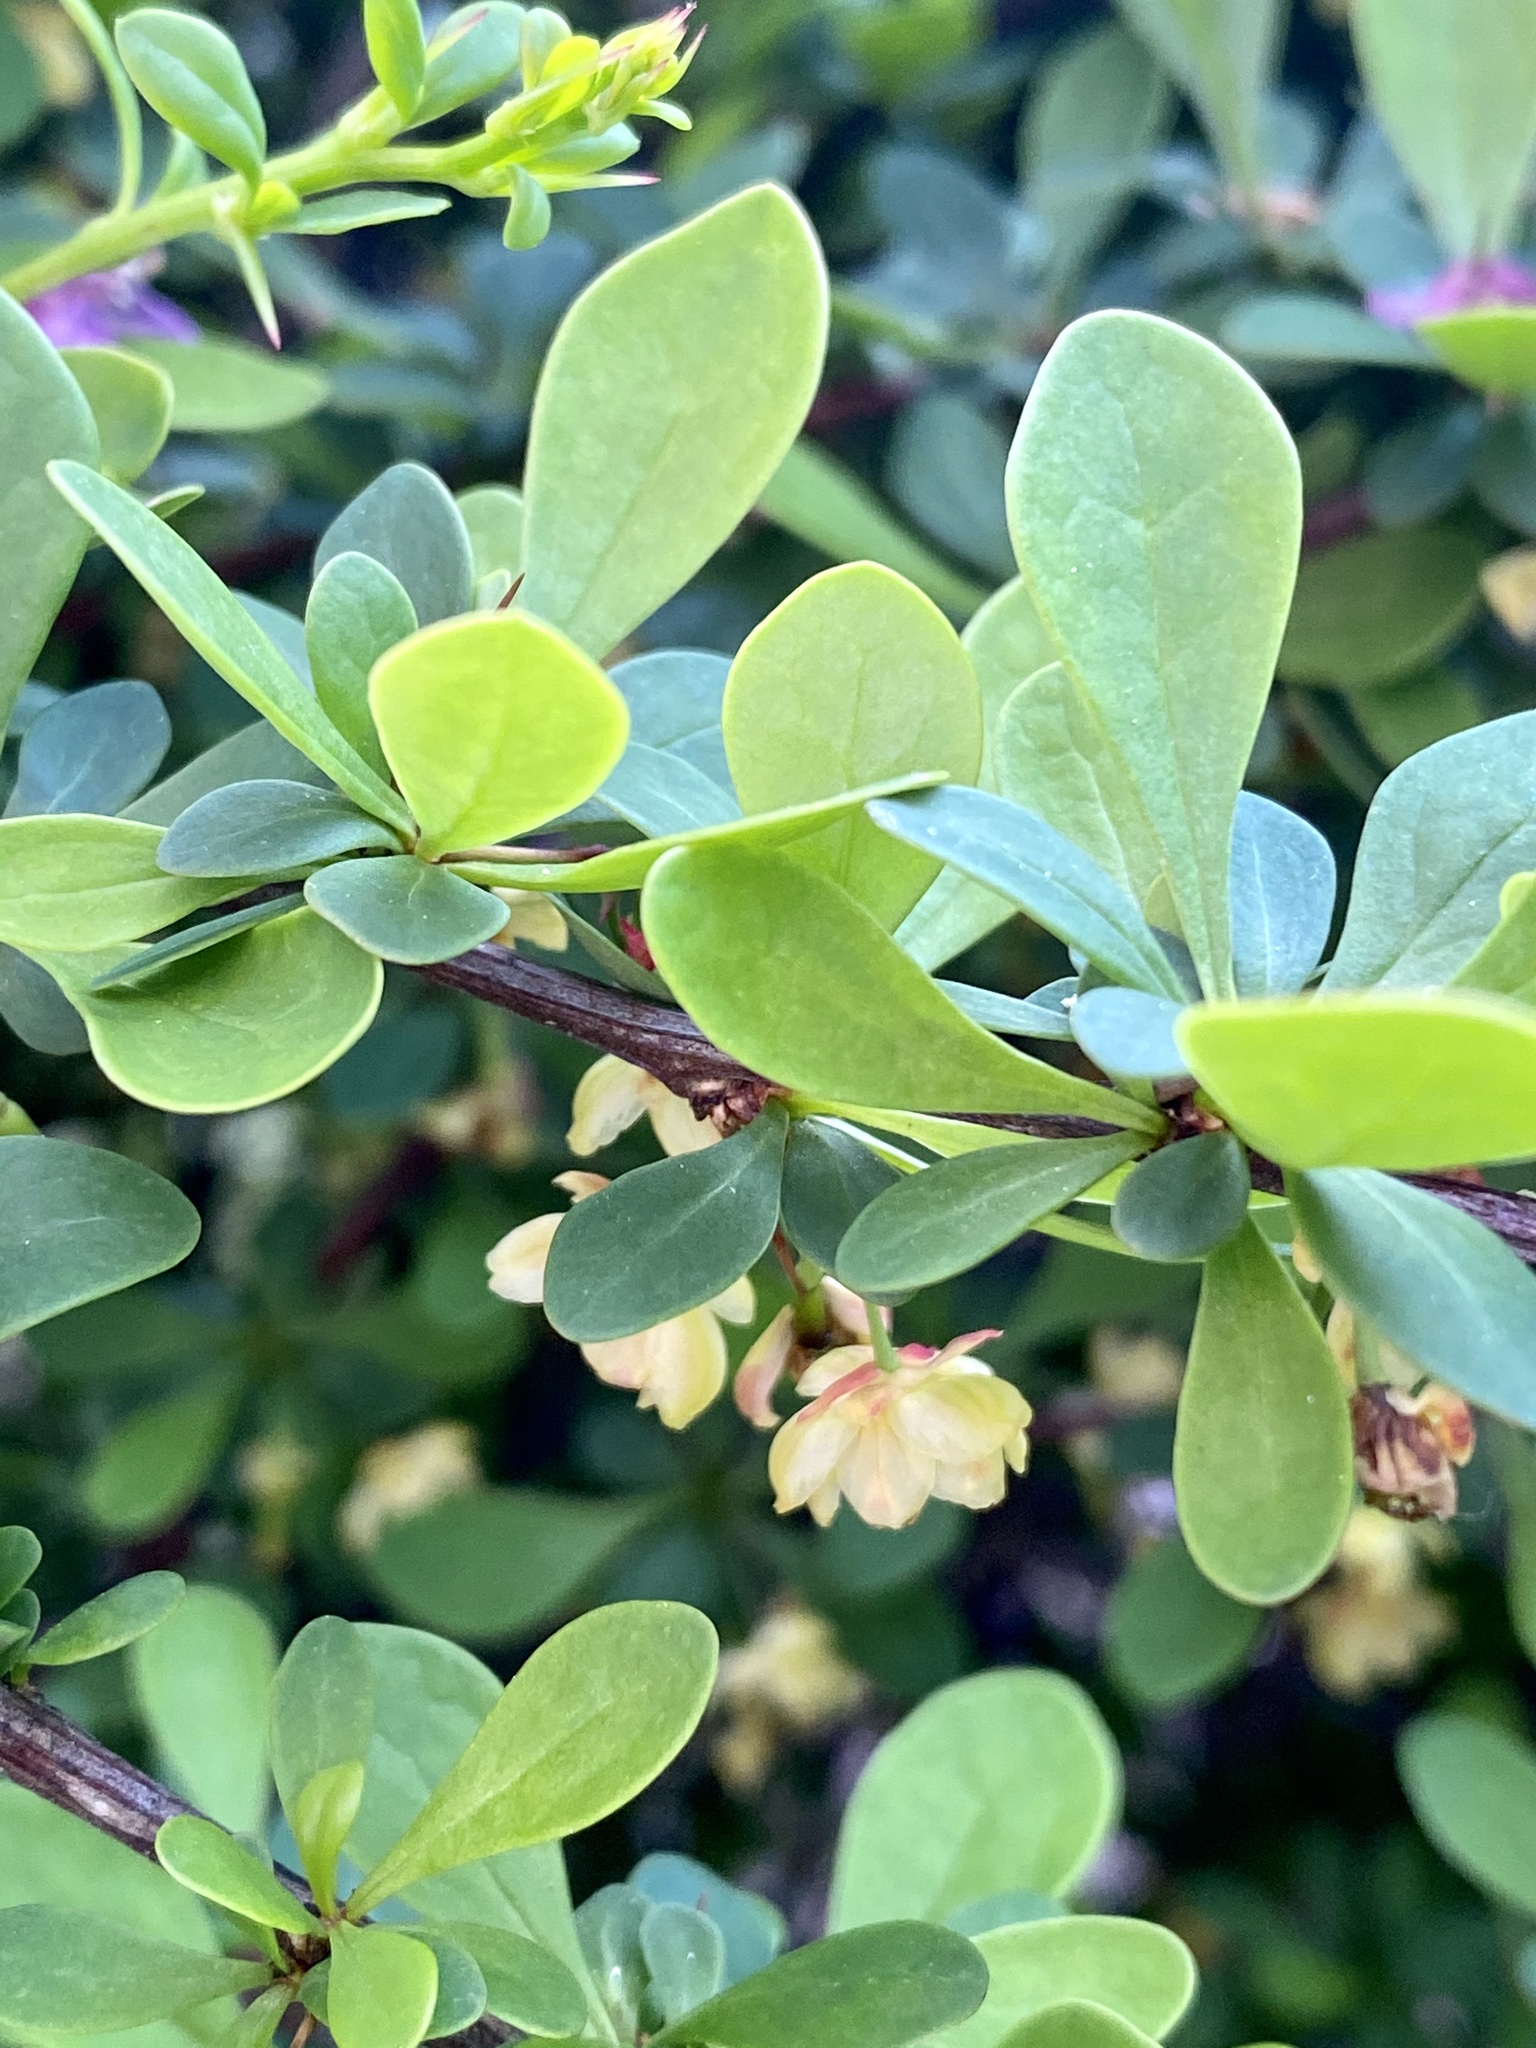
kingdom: Plantae
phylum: Tracheophyta
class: Magnoliopsida
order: Ranunculales
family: Berberidaceae
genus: Berberis
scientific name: Berberis thunbergii
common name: Japanese barberry
